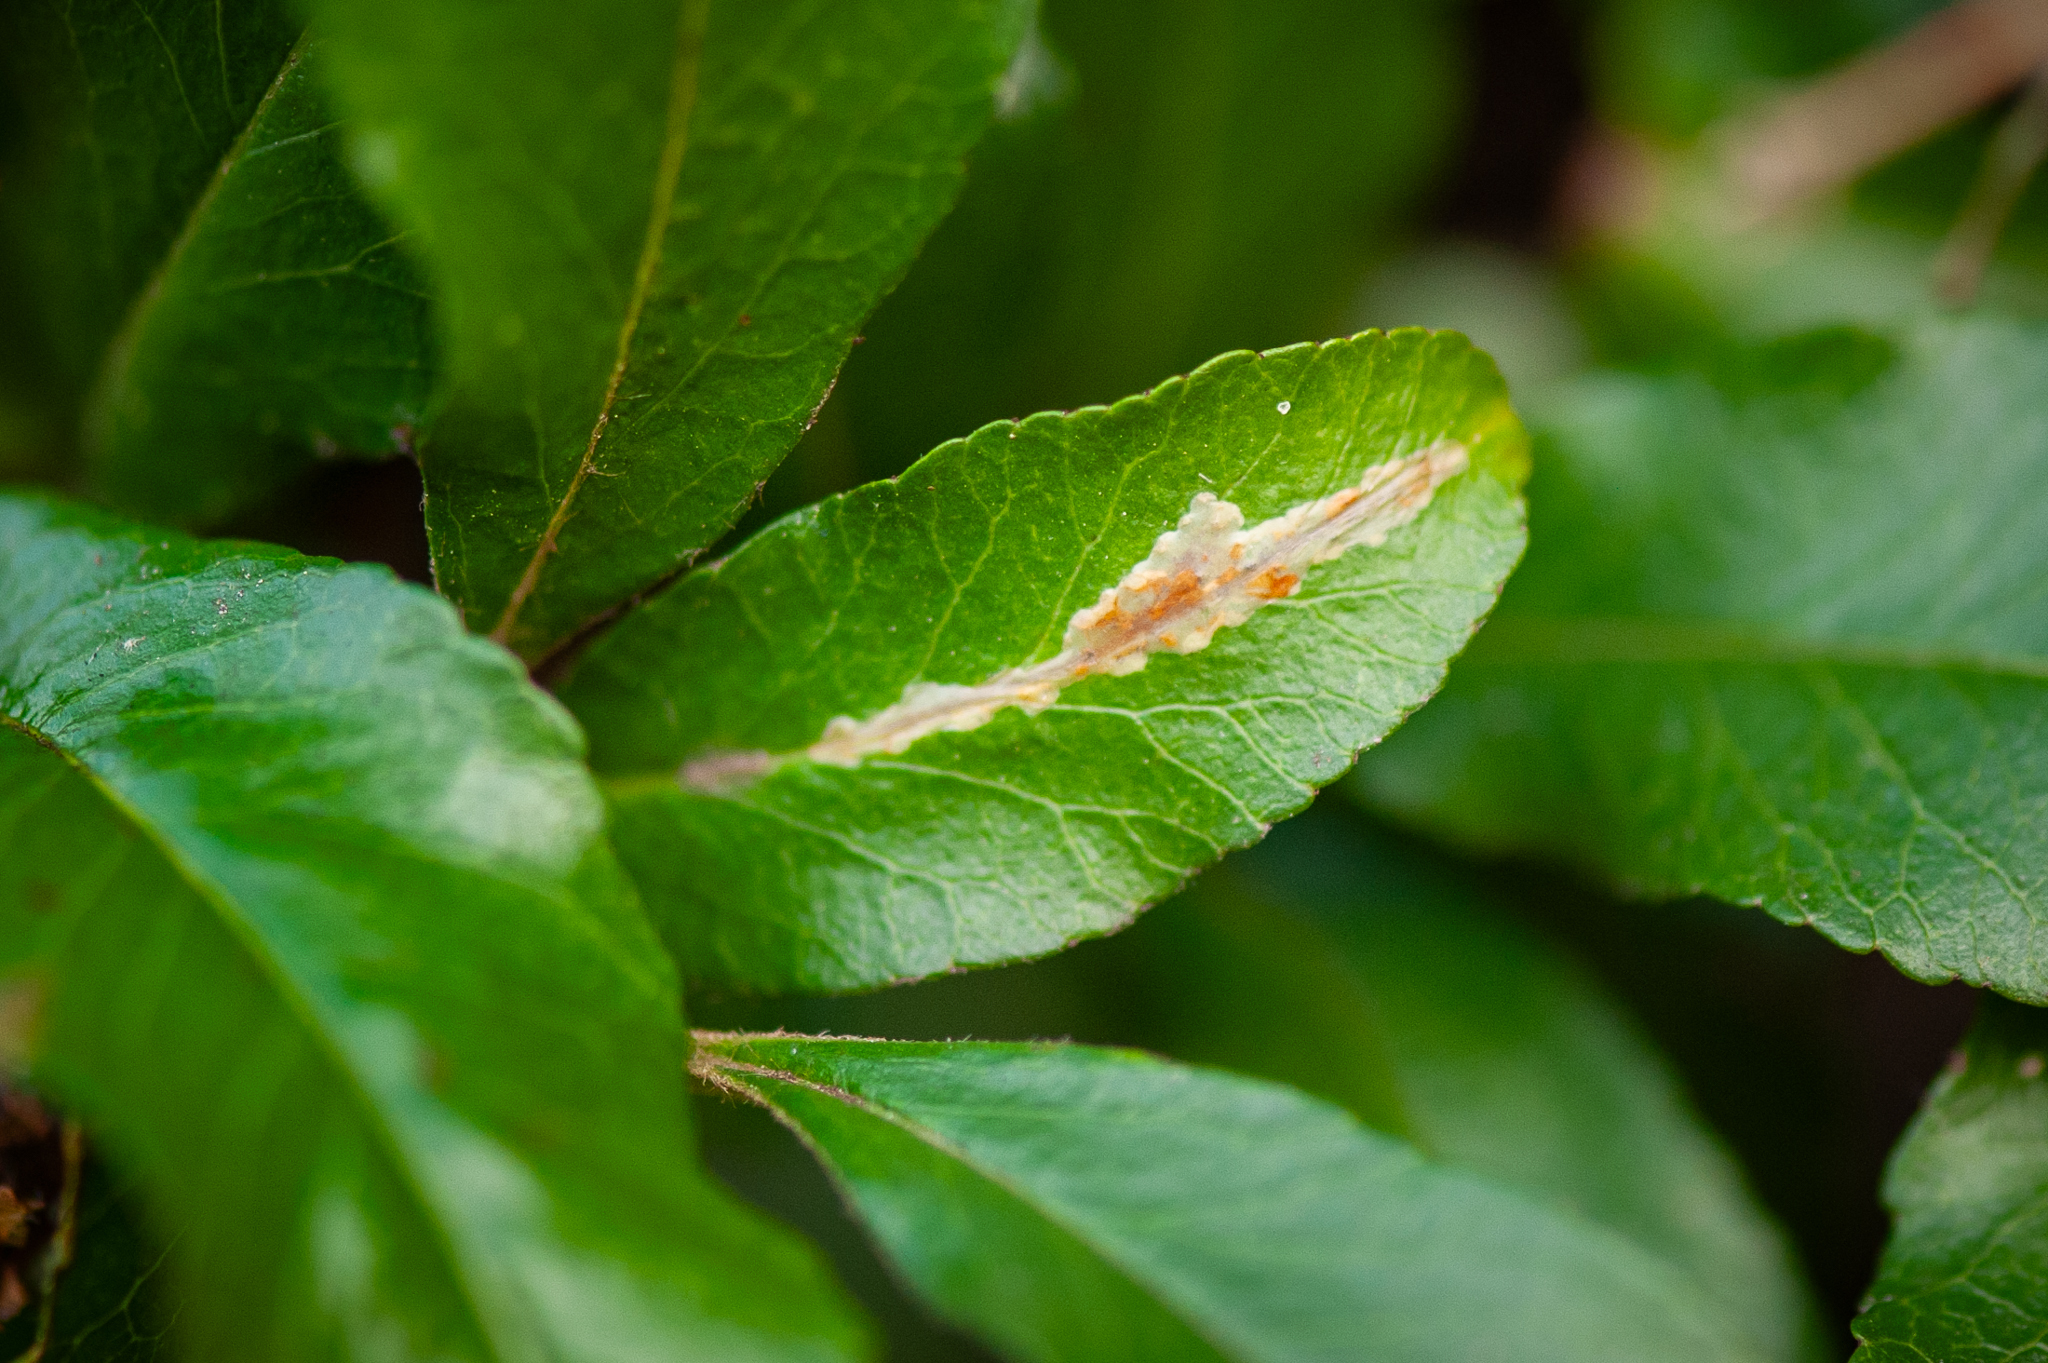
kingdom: Animalia
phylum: Arthropoda
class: Insecta
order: Lepidoptera
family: Gracillariidae
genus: Phyllonorycter
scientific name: Phyllonorycter leucographella
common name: Firethorn leaf-miner
